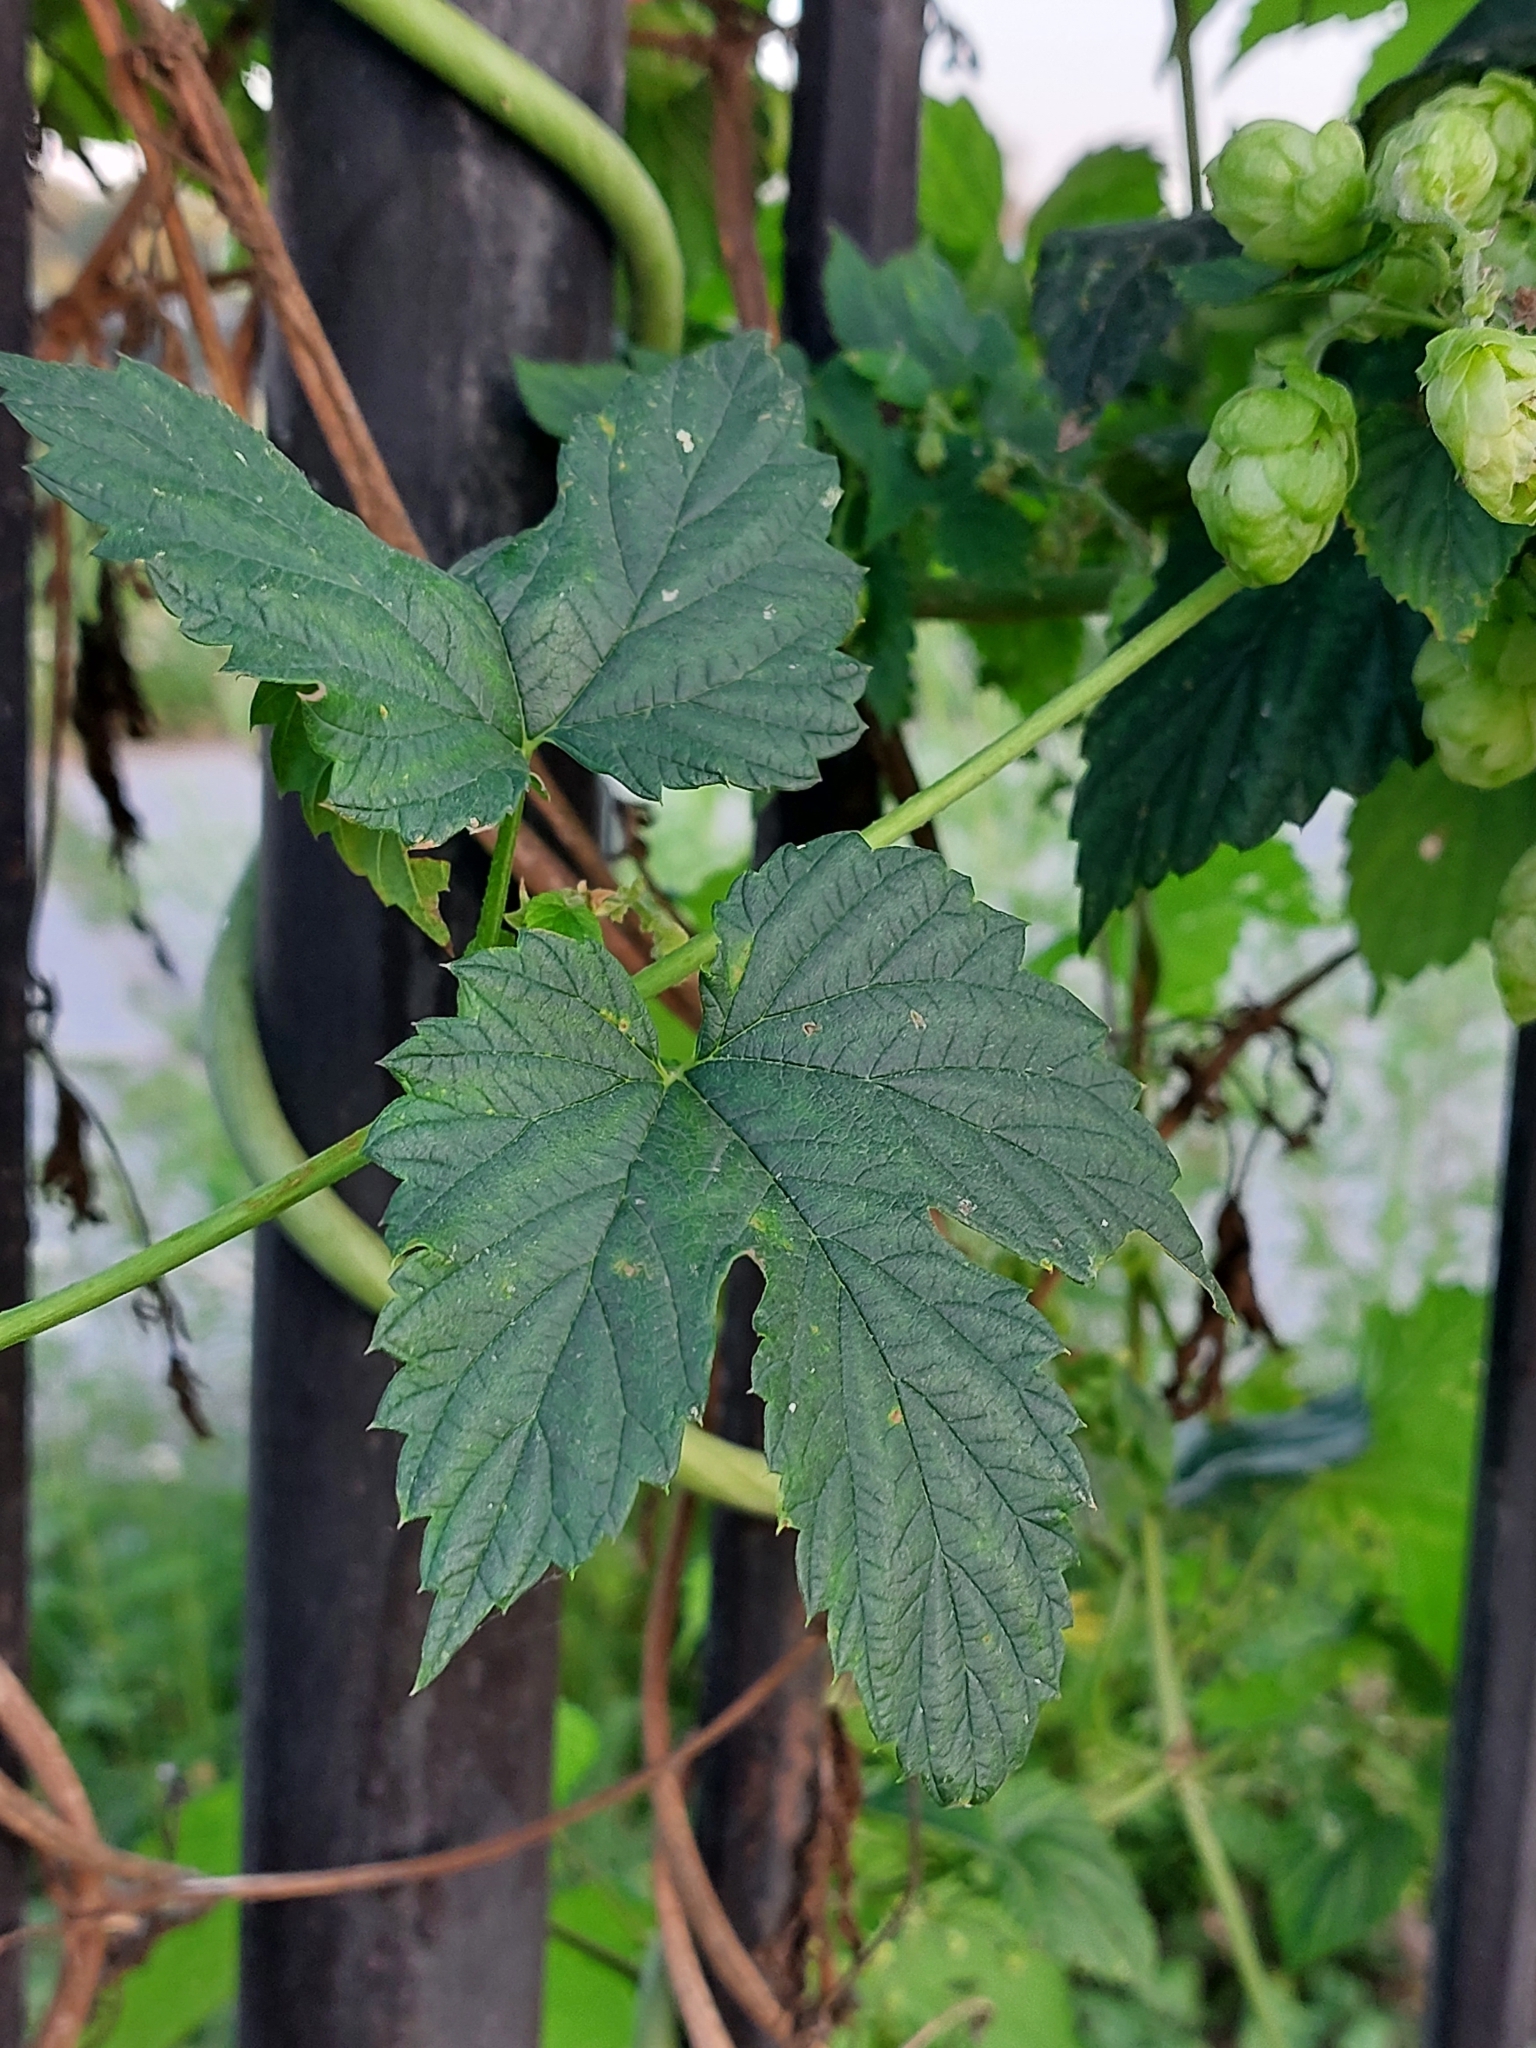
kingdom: Plantae
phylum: Tracheophyta
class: Magnoliopsida
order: Rosales
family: Cannabaceae
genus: Humulus
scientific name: Humulus lupulus
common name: Hop
